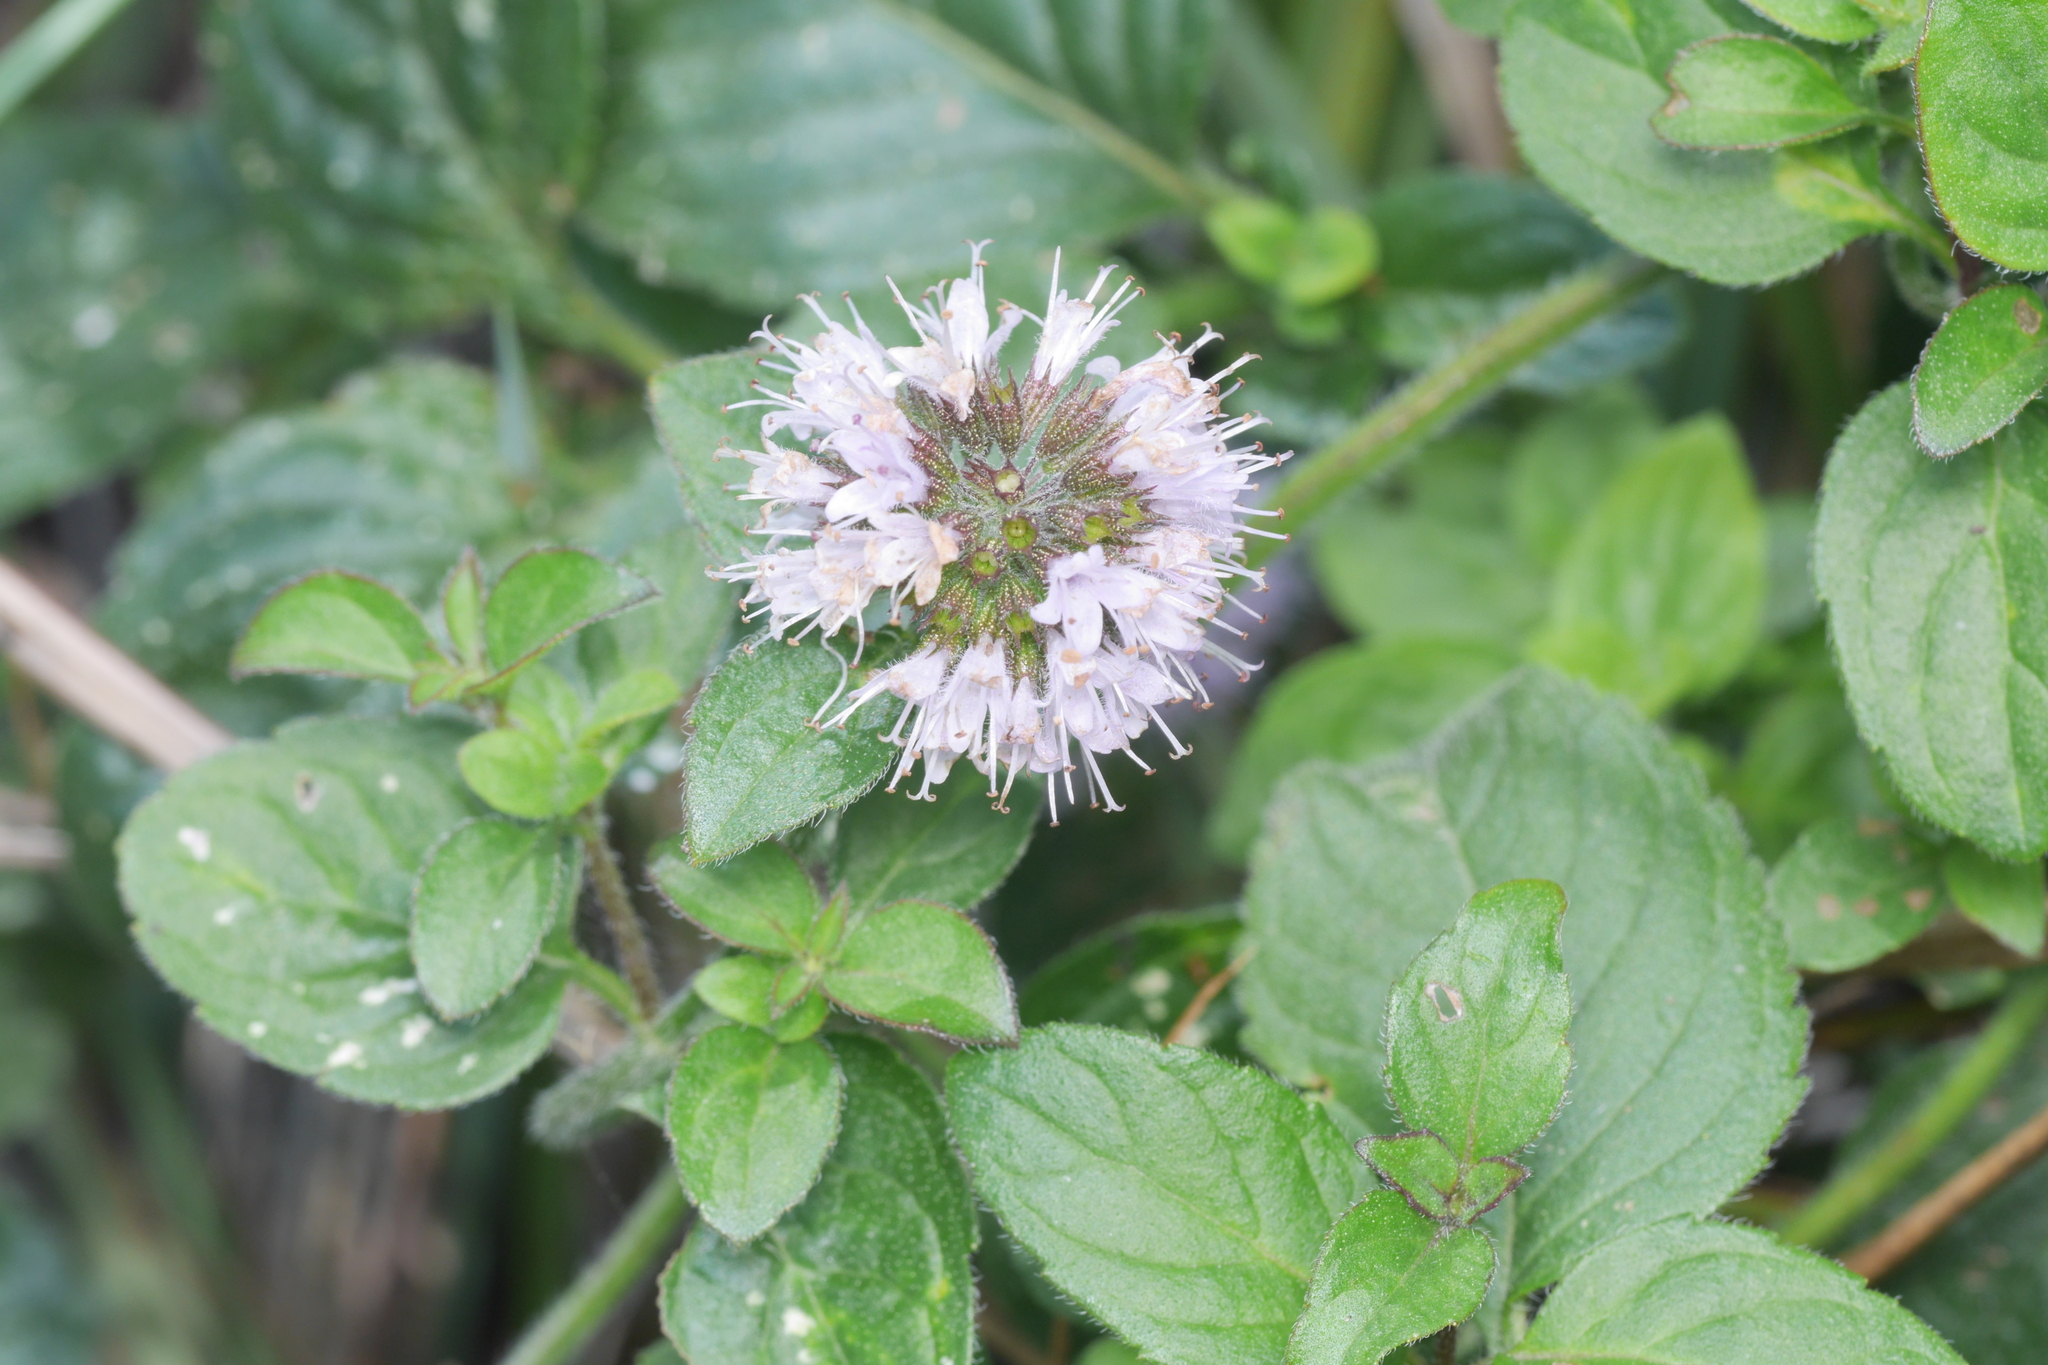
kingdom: Plantae
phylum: Tracheophyta
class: Magnoliopsida
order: Lamiales
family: Lamiaceae
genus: Mentha
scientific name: Mentha aquatica
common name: Water mint
